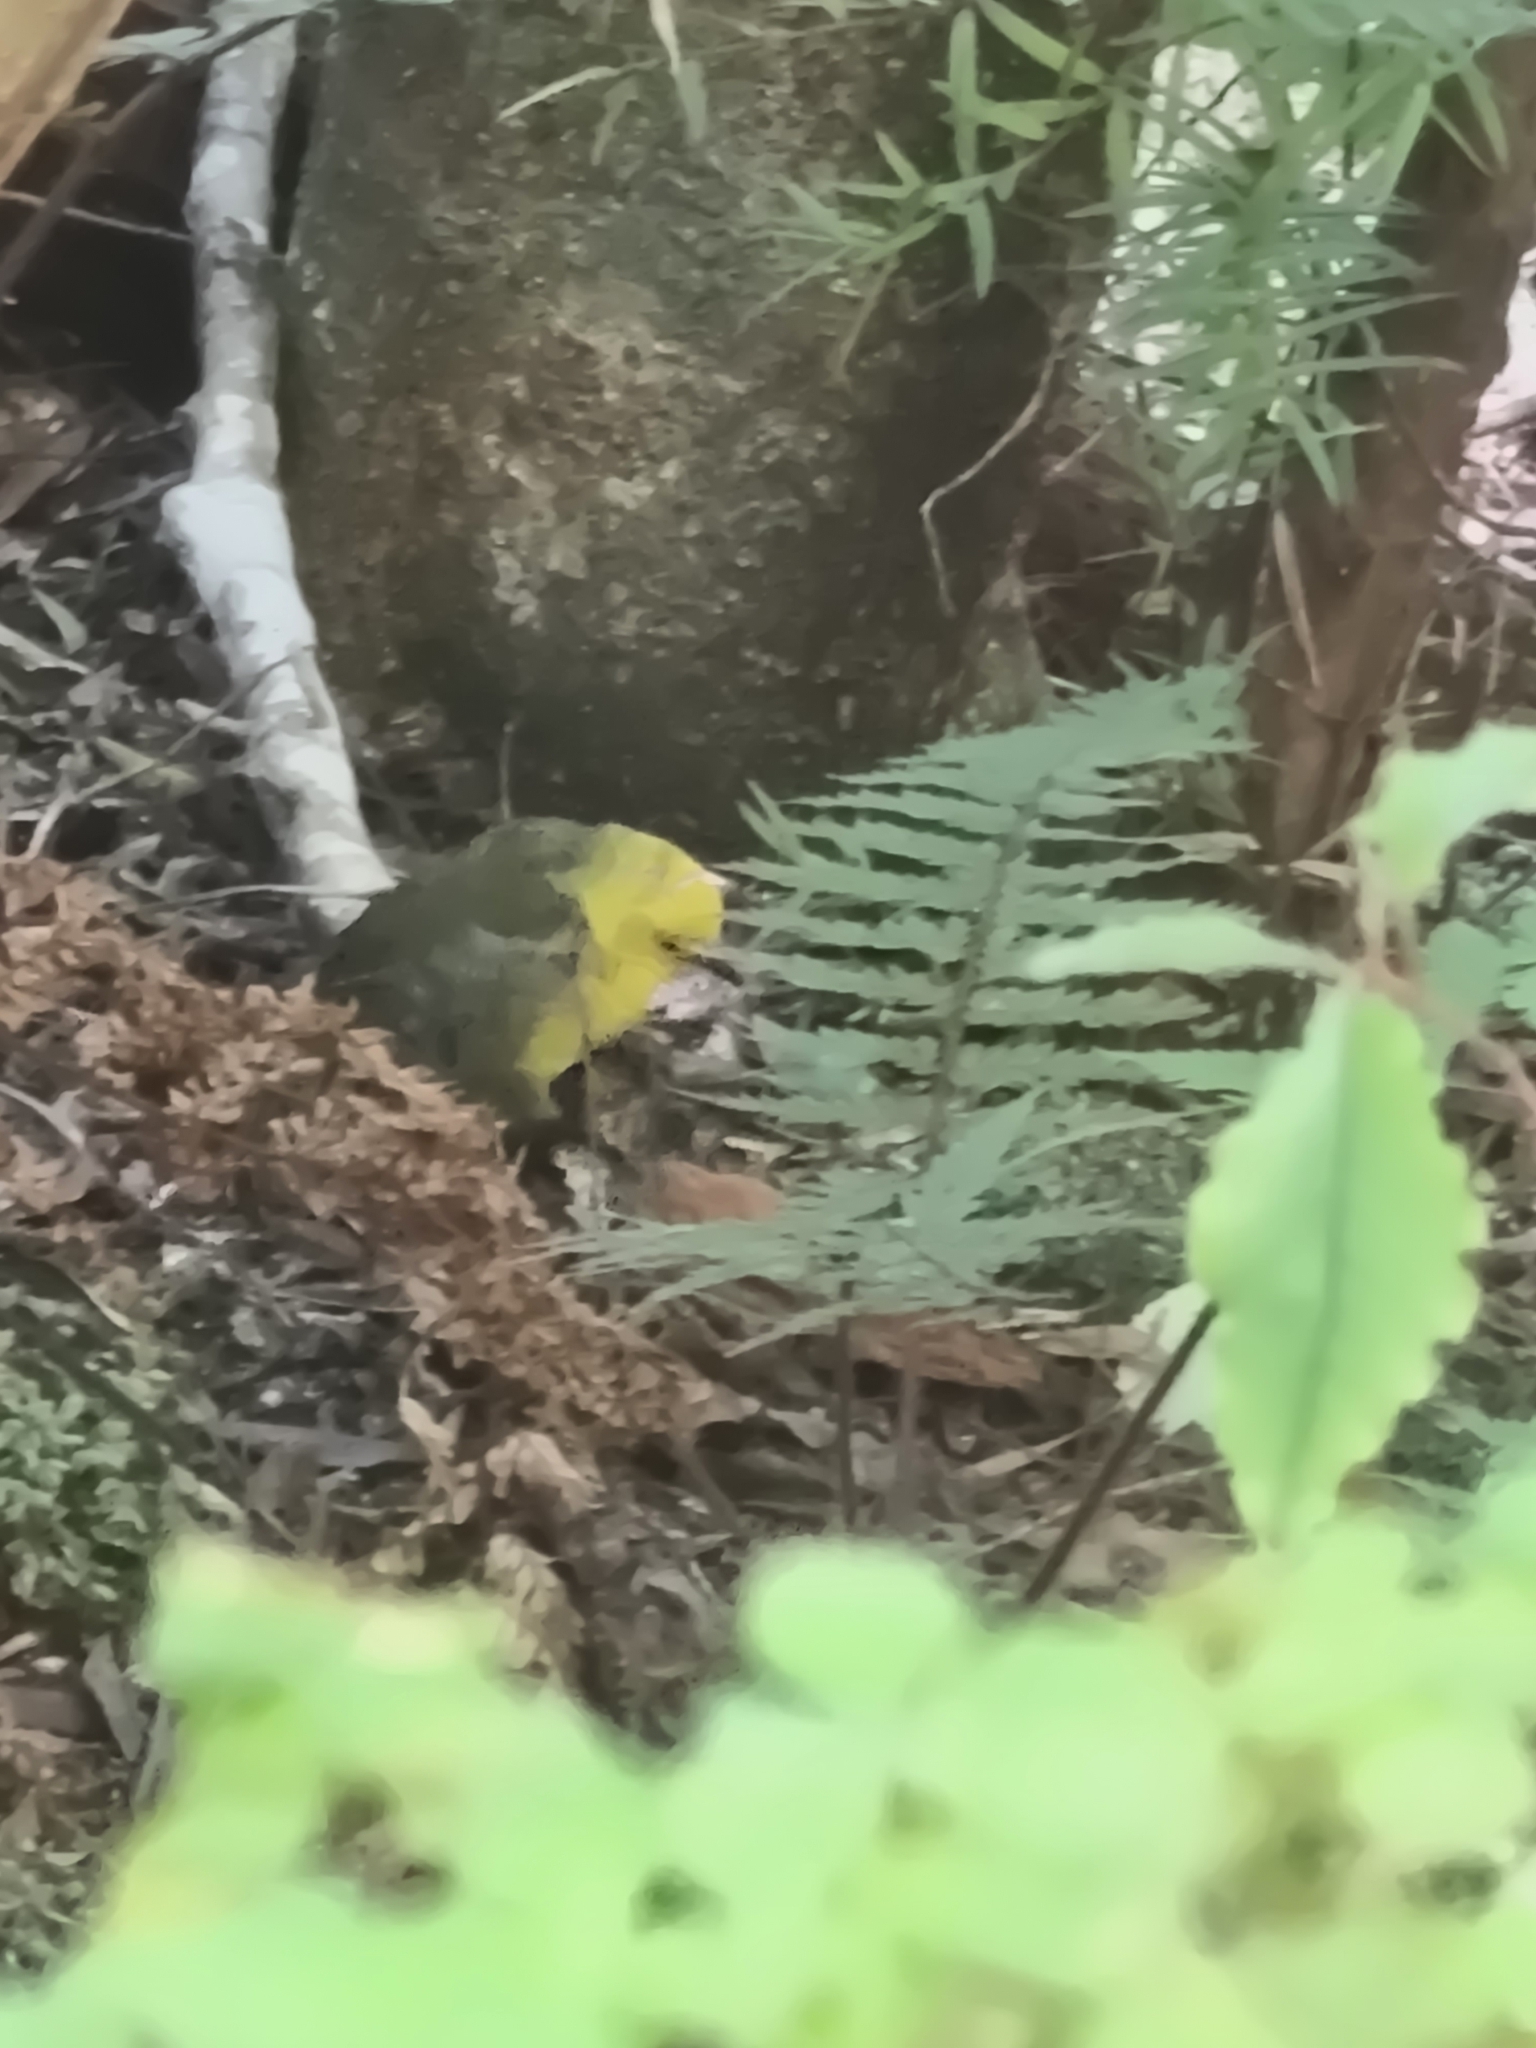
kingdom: Animalia
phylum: Chordata
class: Aves
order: Passeriformes
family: Acanthizidae
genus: Mohoua
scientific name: Mohoua ochrocephala
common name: Yellowhead
